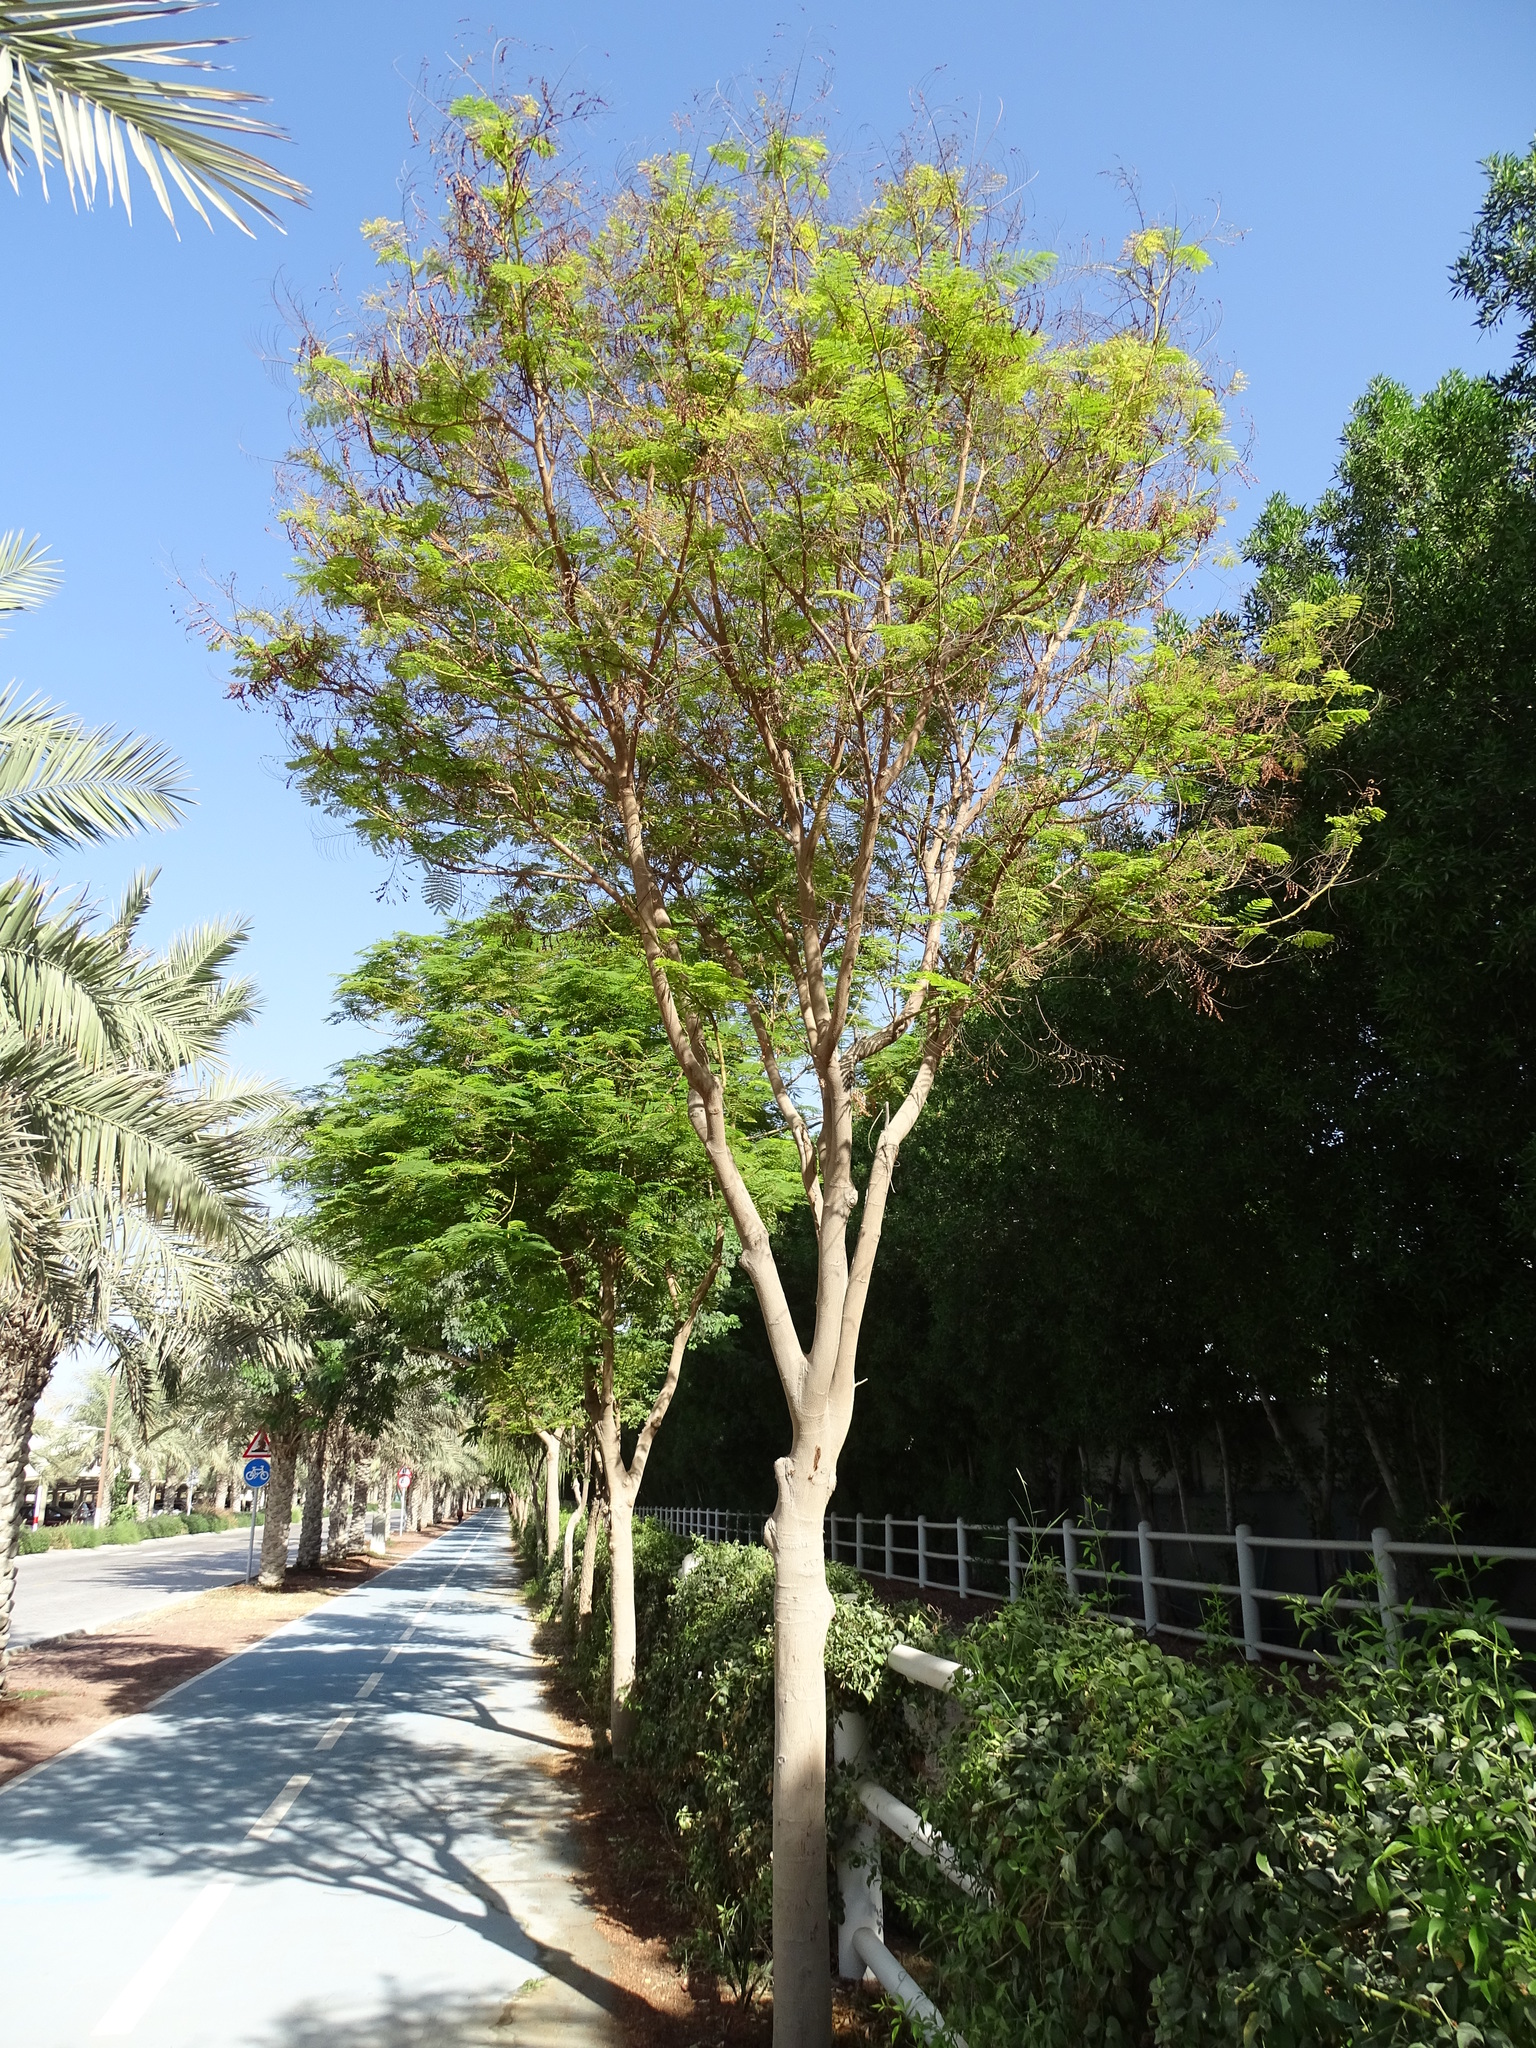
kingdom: Plantae
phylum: Tracheophyta
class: Magnoliopsida
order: Brassicales
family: Moringaceae
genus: Moringa
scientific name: Moringa oleifera
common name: Horseradish-tree
